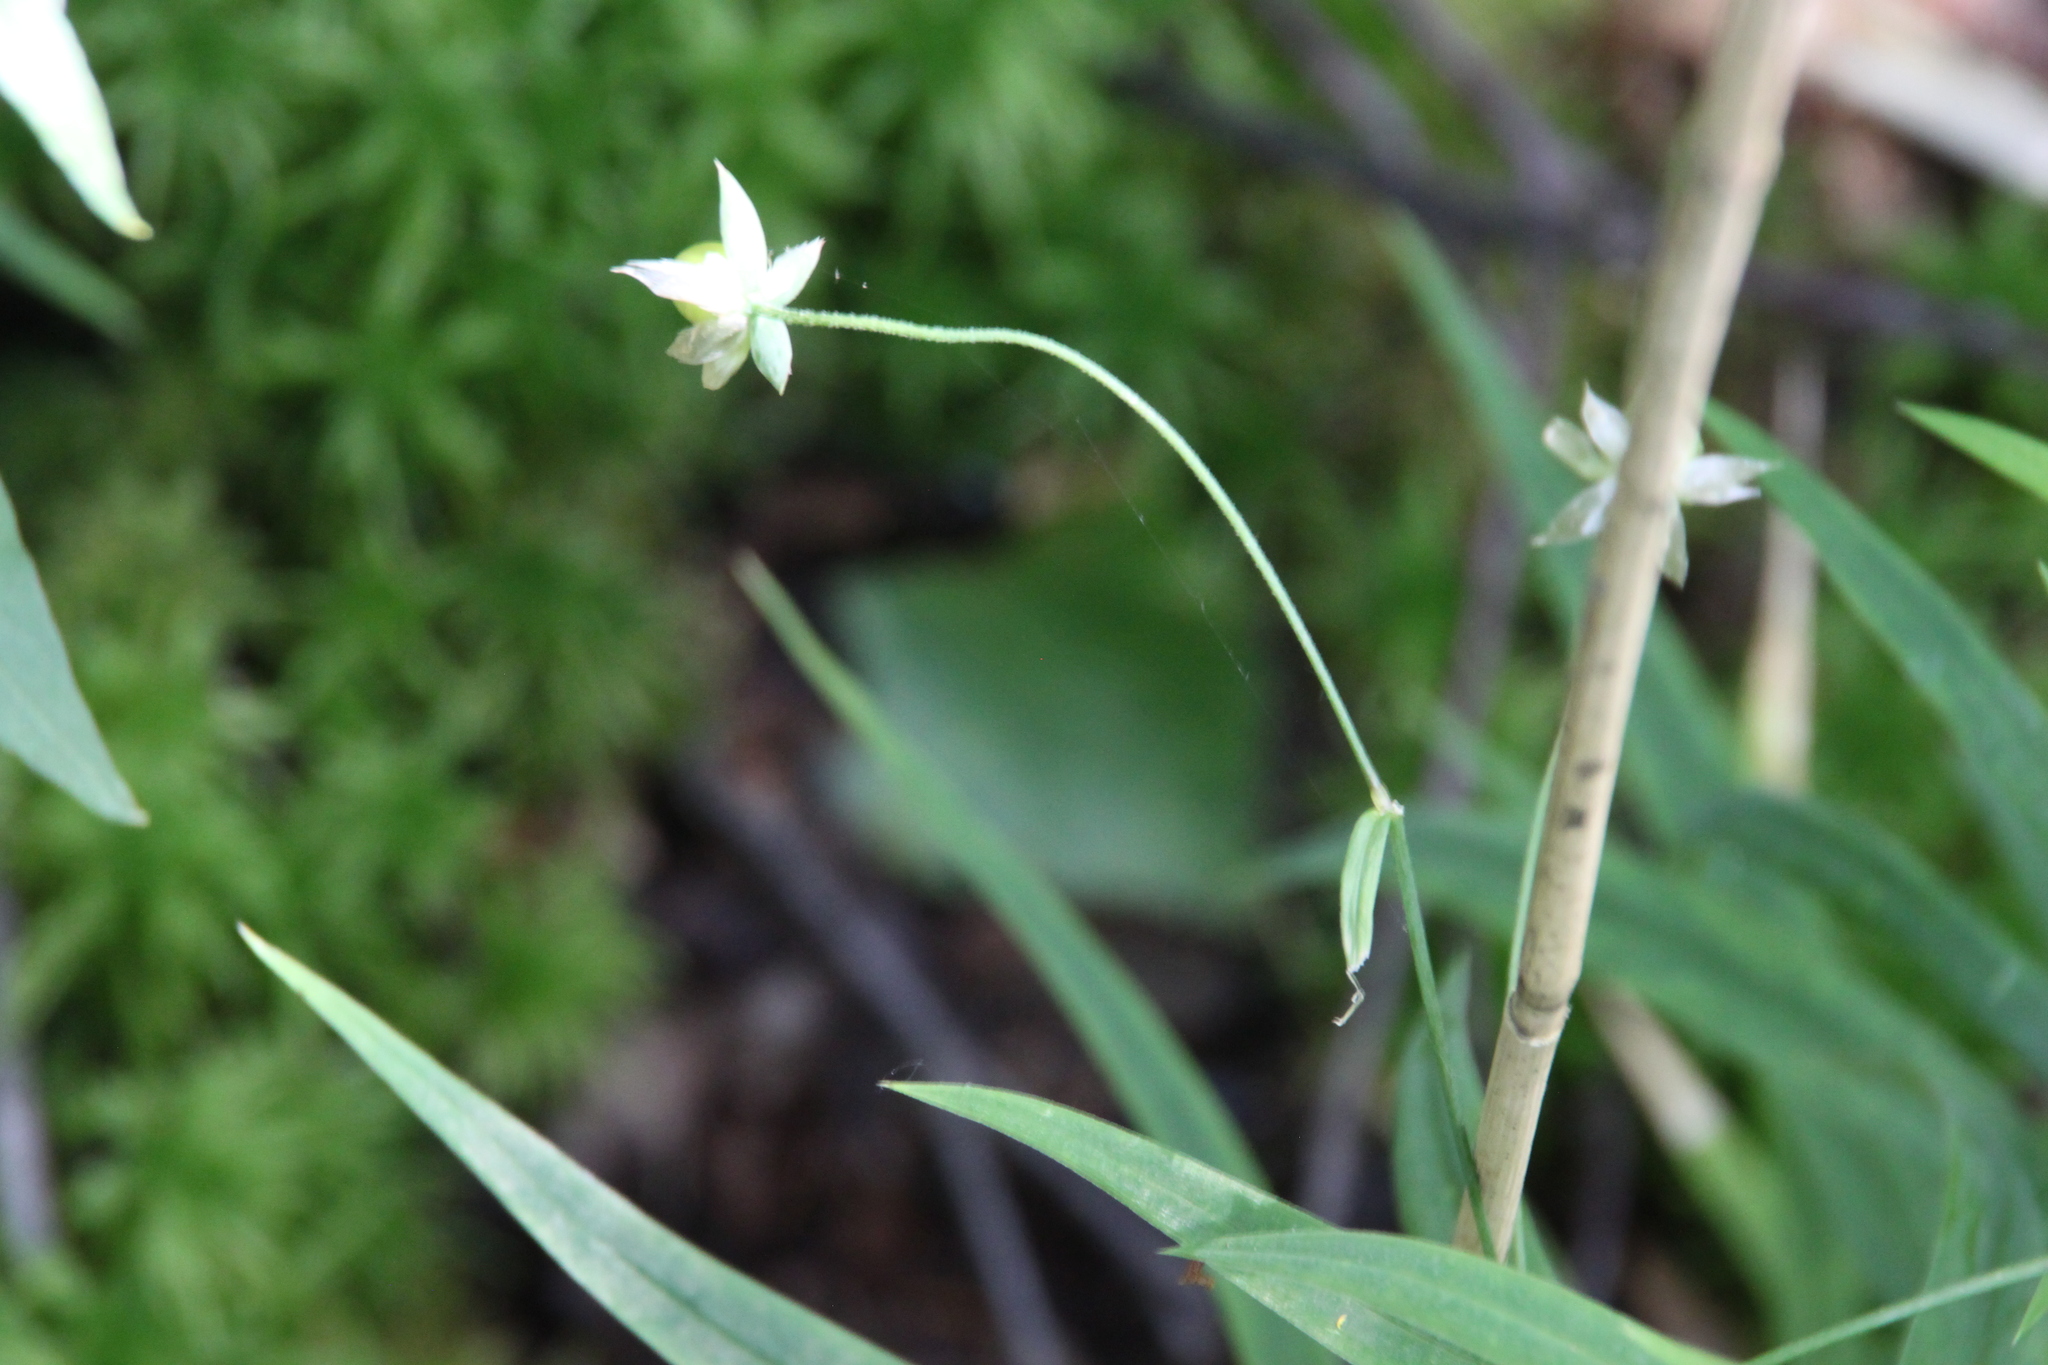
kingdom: Plantae
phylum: Tracheophyta
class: Magnoliopsida
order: Caryophyllales
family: Caryophyllaceae
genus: Rabelera
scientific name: Rabelera holostea
